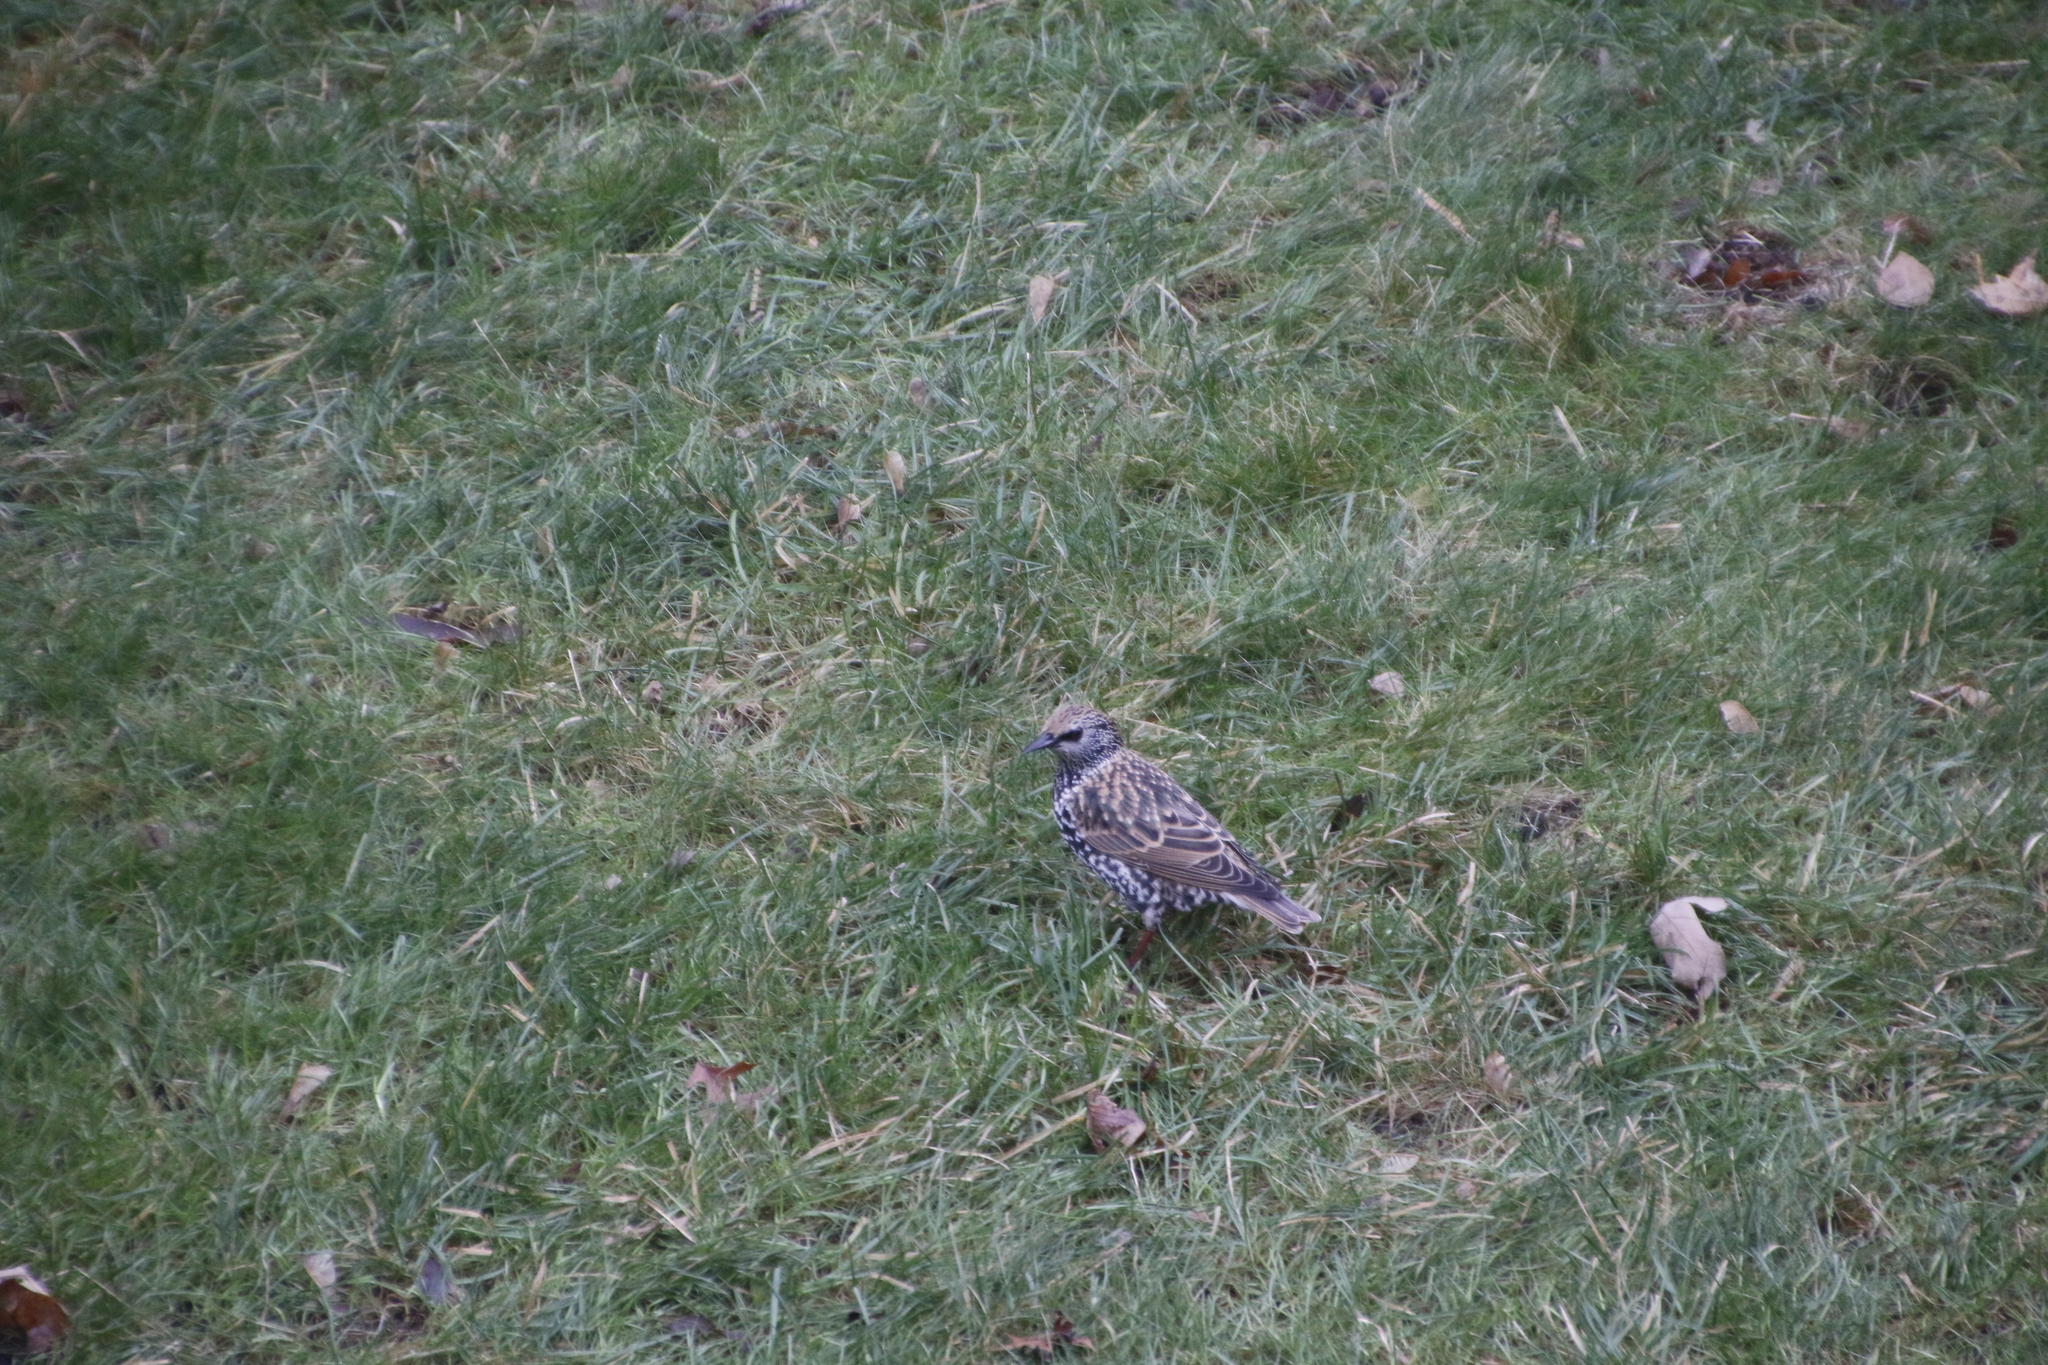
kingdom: Animalia
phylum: Chordata
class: Aves
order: Passeriformes
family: Sturnidae
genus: Sturnus
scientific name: Sturnus vulgaris
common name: Common starling
